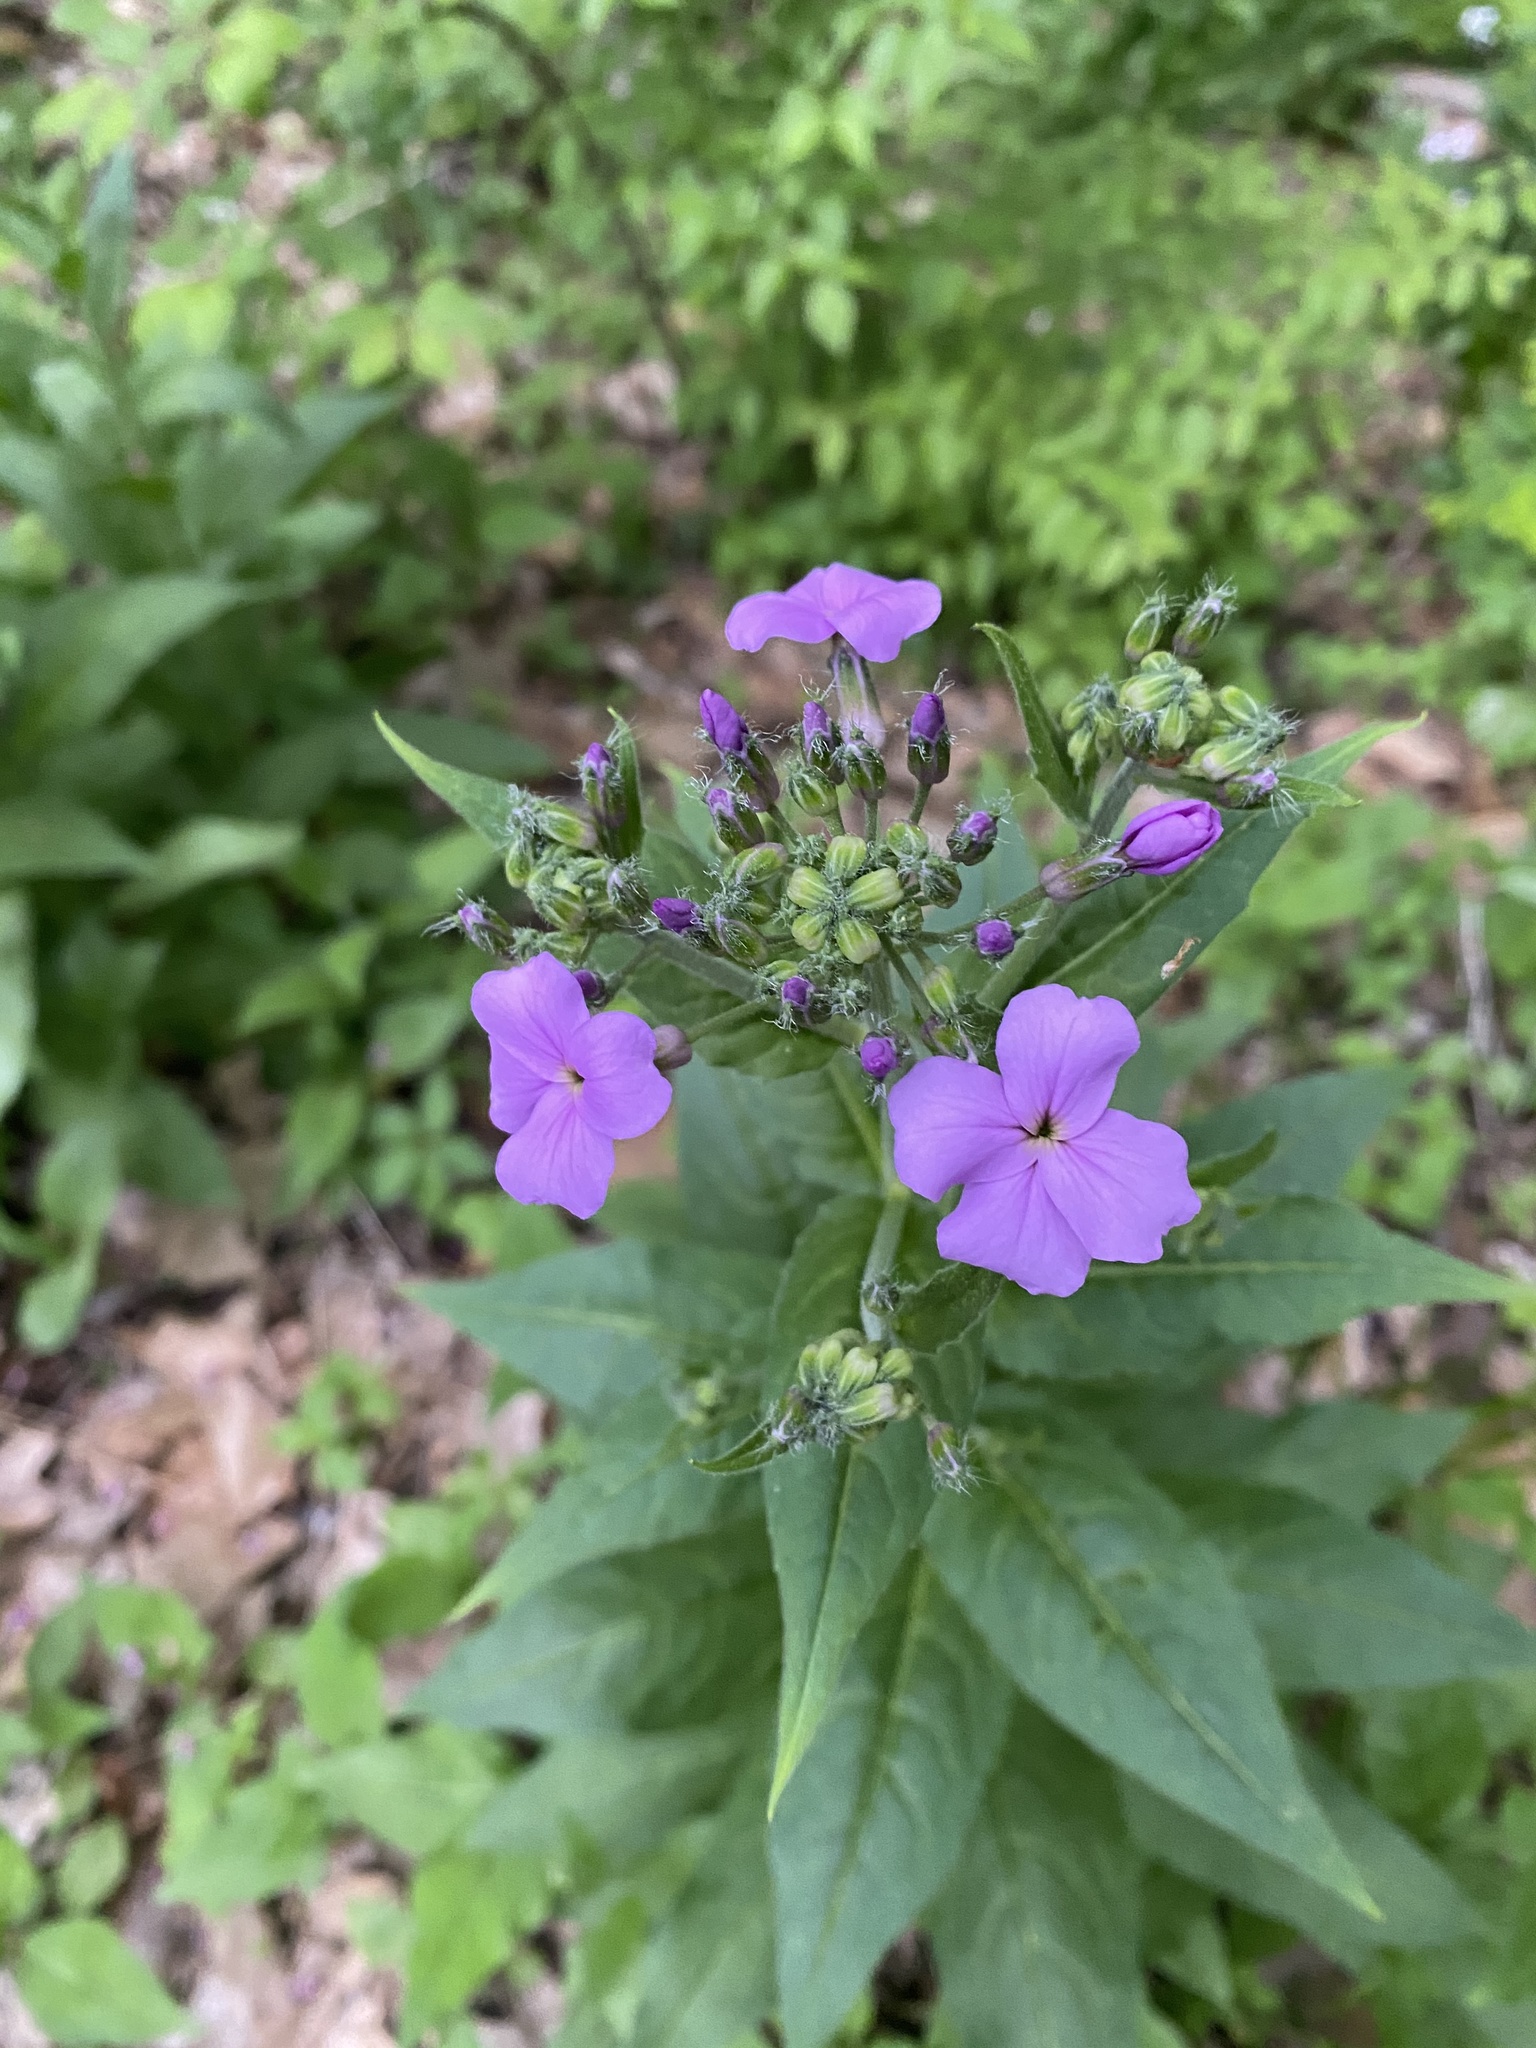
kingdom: Plantae
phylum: Tracheophyta
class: Magnoliopsida
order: Brassicales
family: Brassicaceae
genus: Hesperis
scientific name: Hesperis matronalis
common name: Dame's-violet
